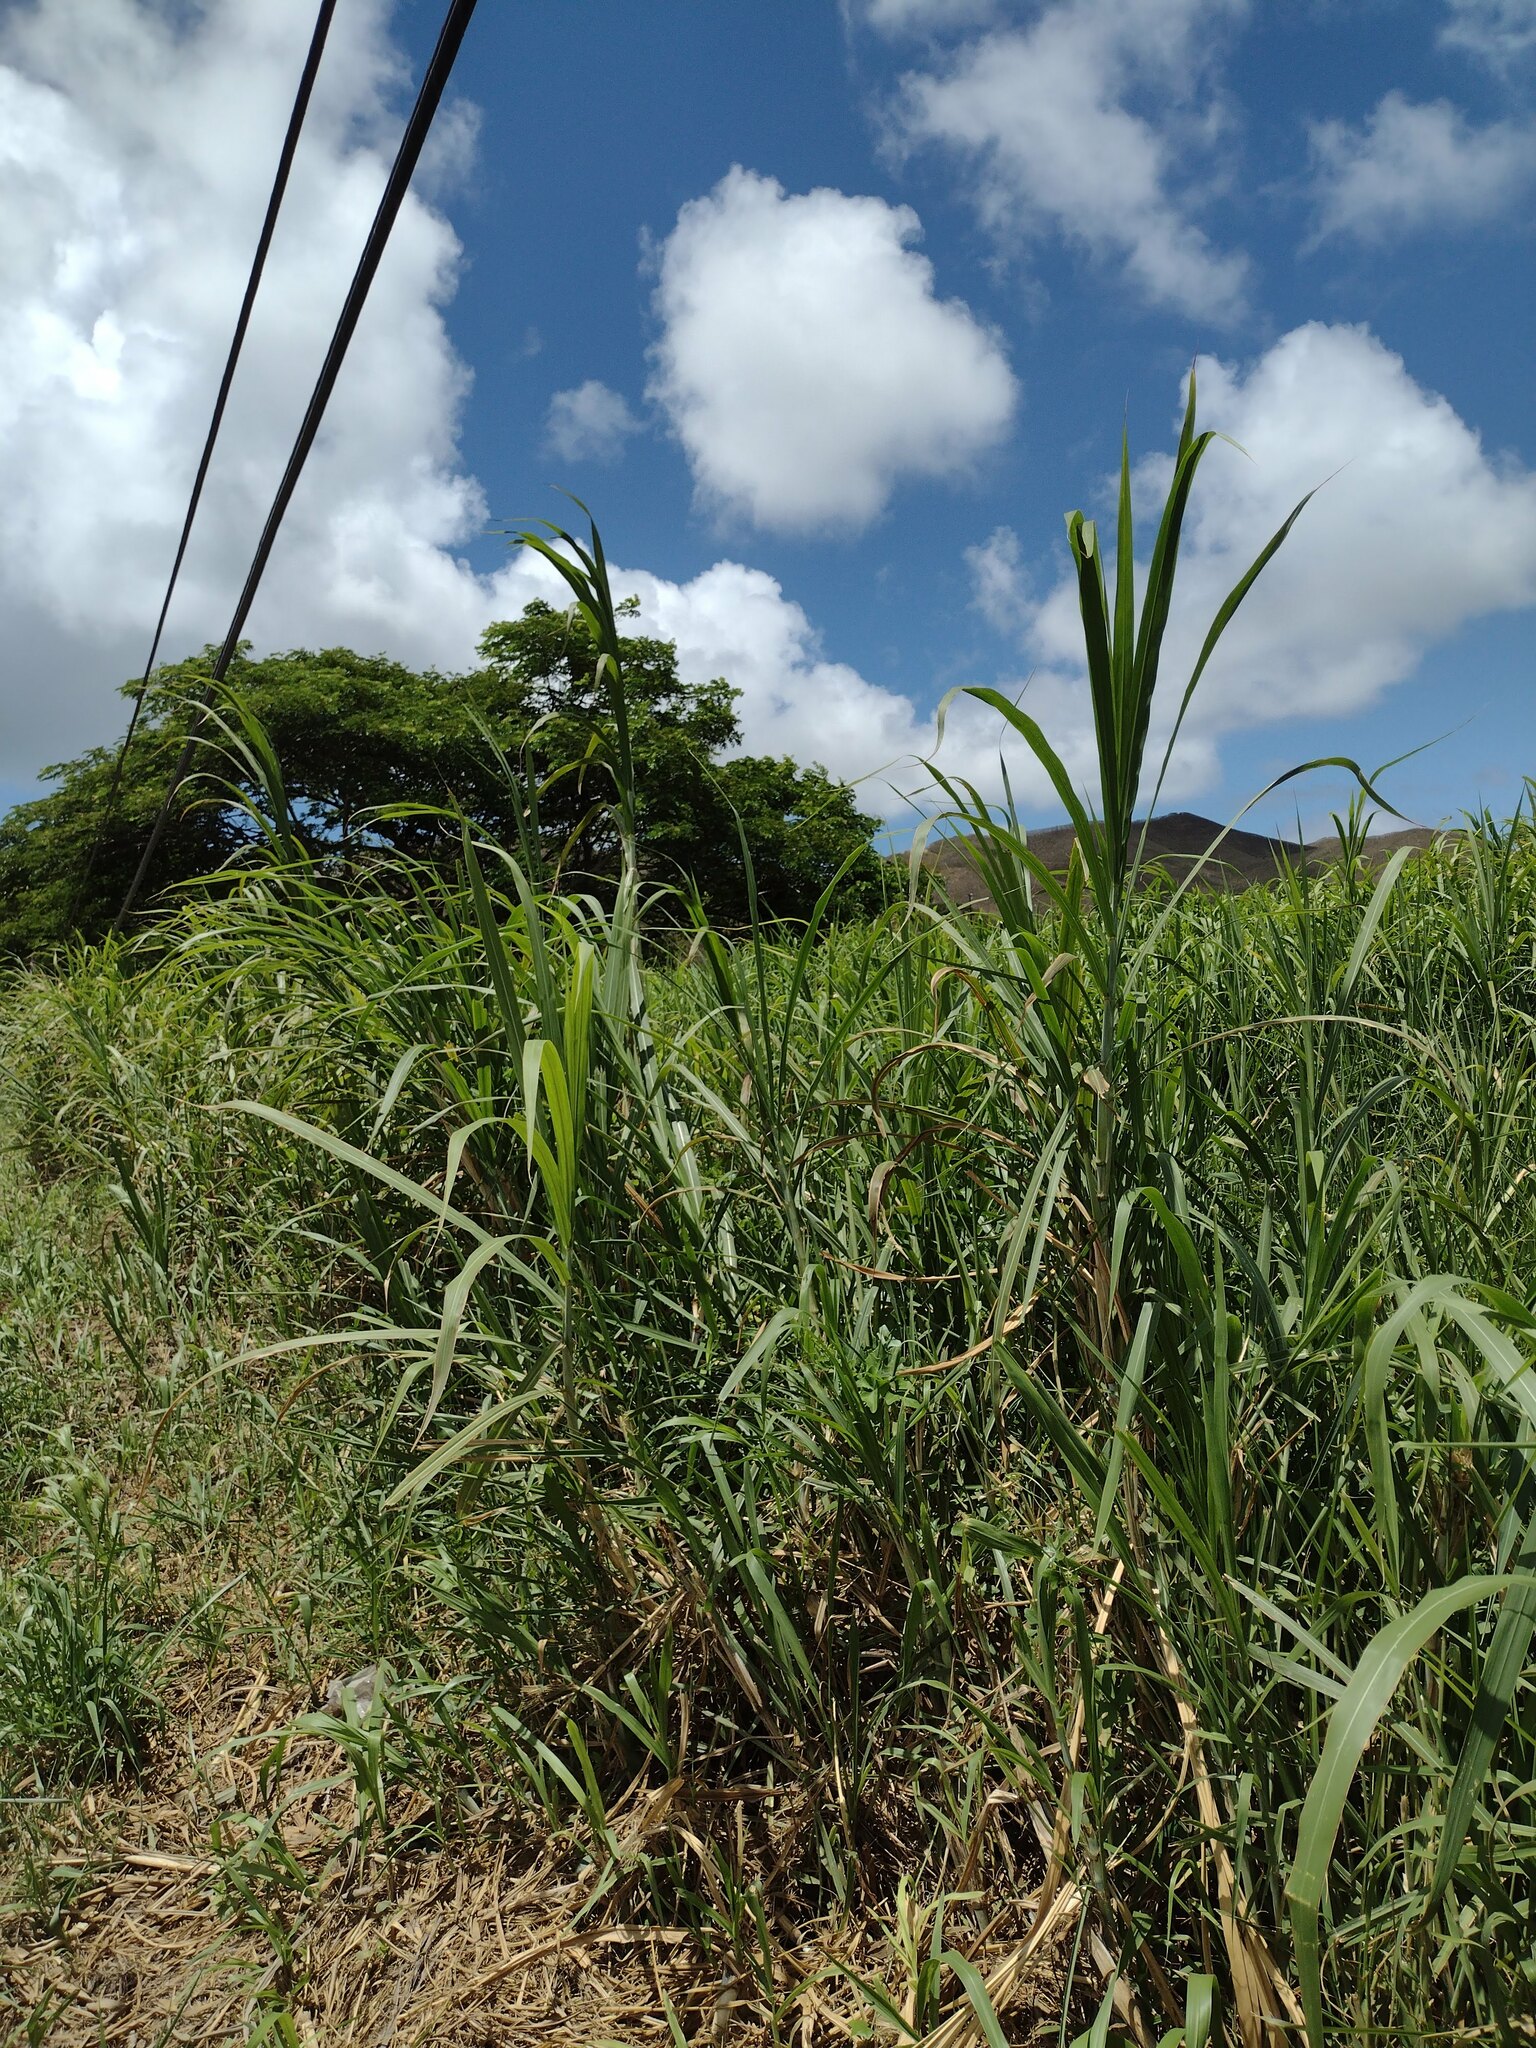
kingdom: Plantae
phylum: Tracheophyta
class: Liliopsida
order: Poales
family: Poaceae
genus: Cenchrus
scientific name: Cenchrus purpureus
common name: Elephant grass
